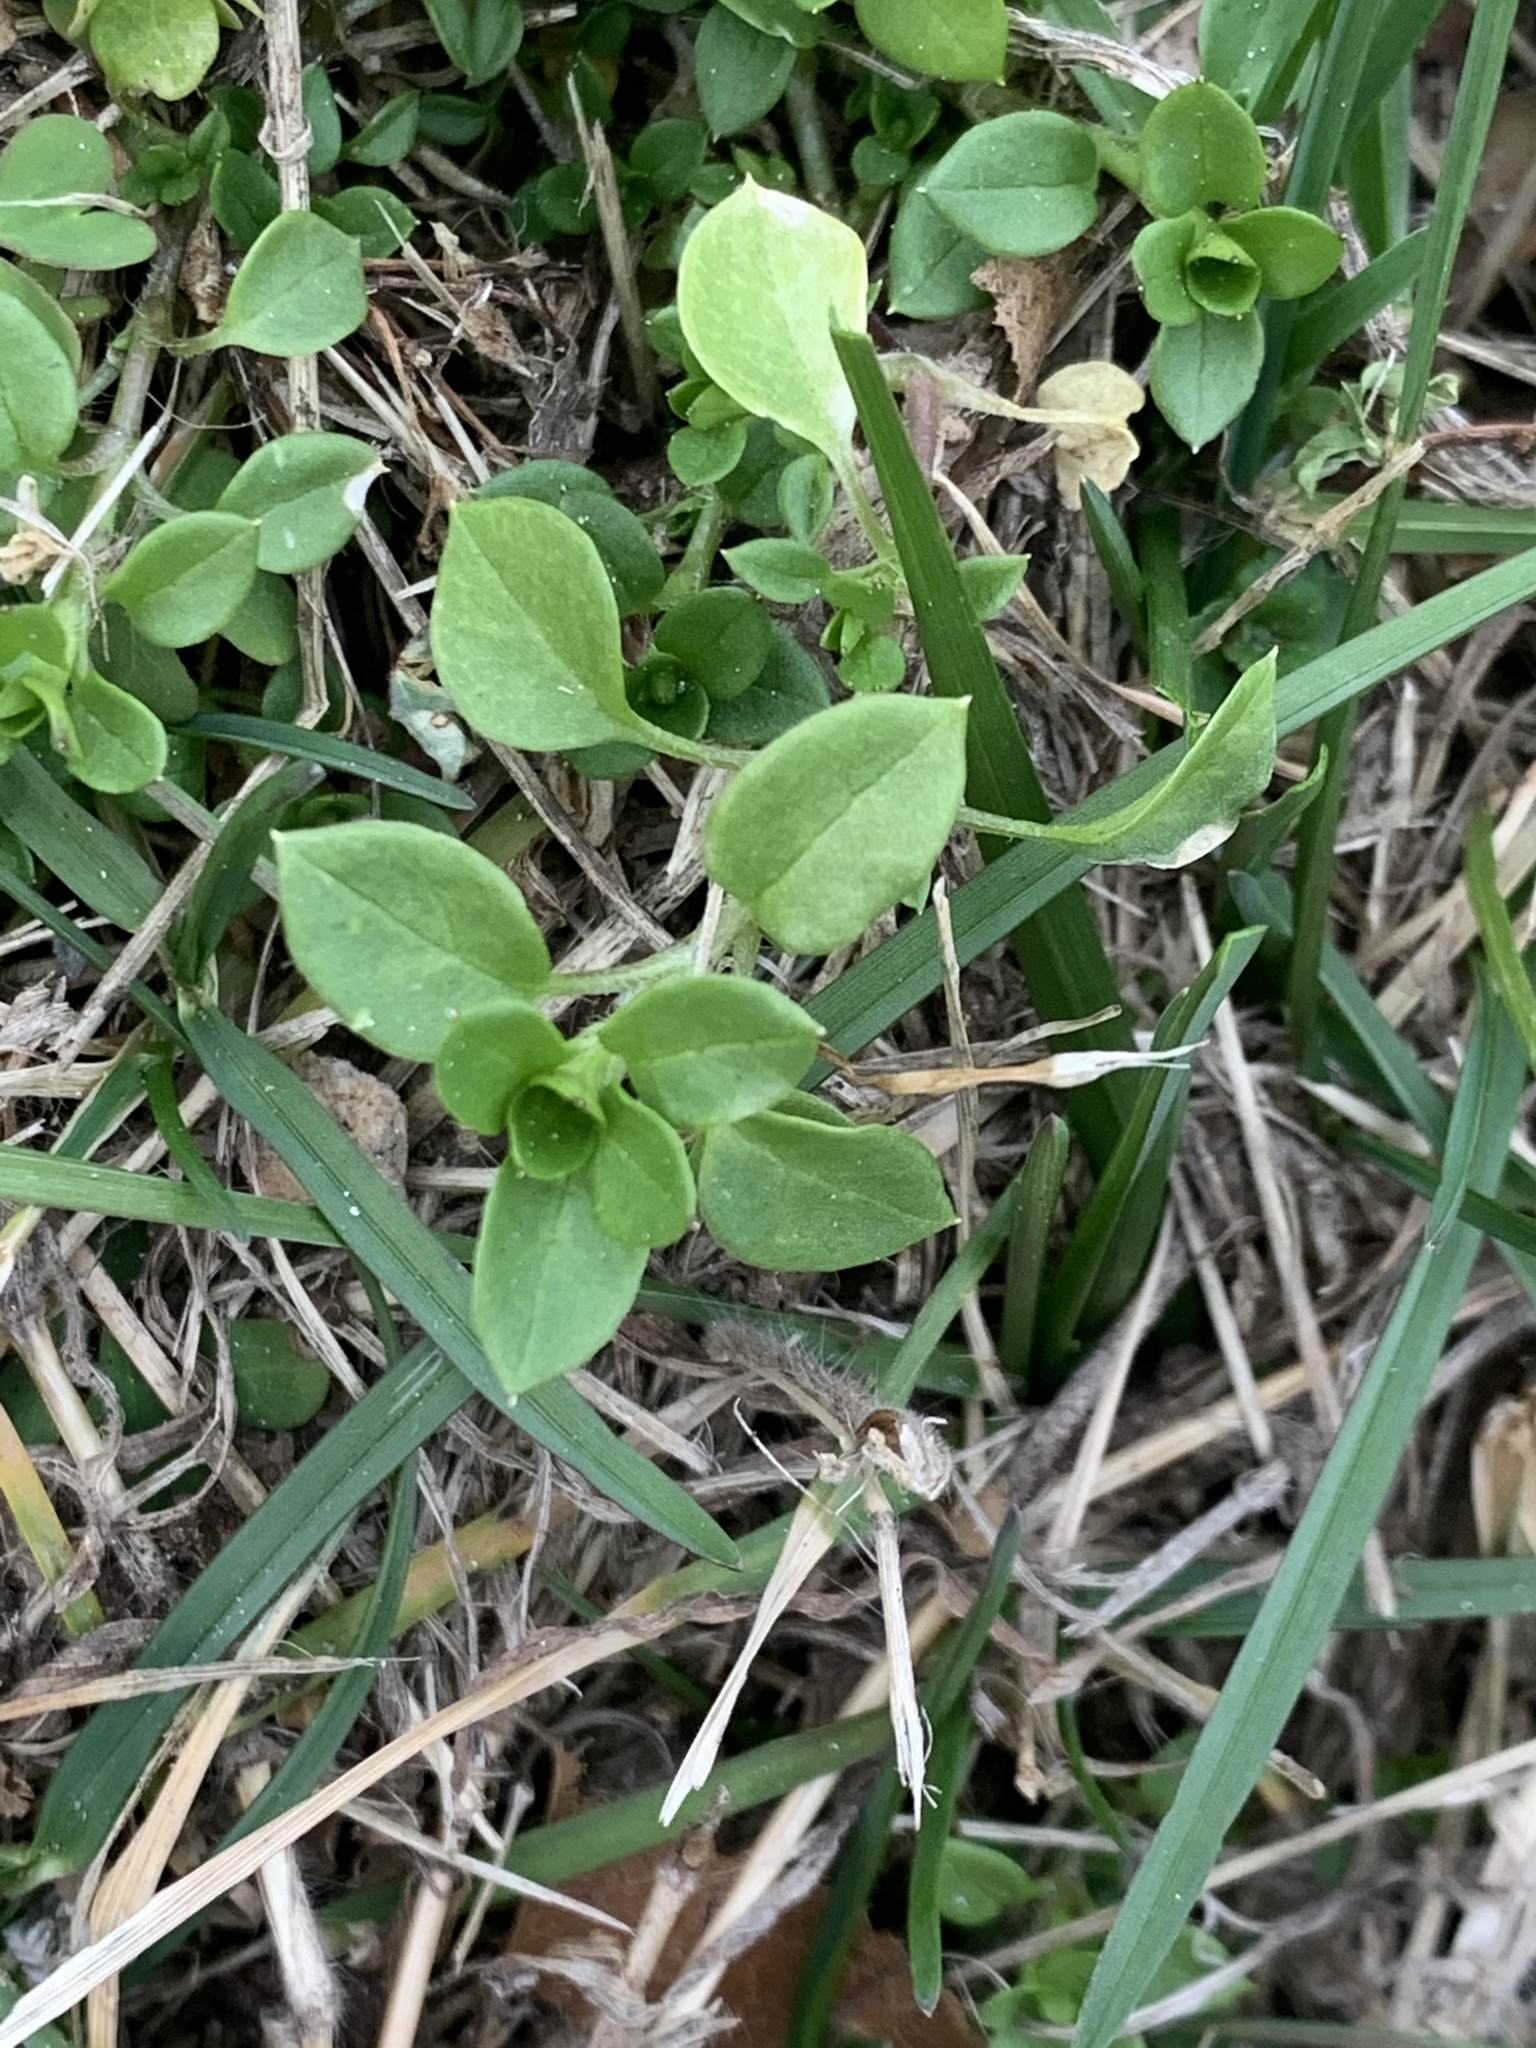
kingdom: Plantae
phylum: Tracheophyta
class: Magnoliopsida
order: Caryophyllales
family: Caryophyllaceae
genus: Stellaria
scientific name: Stellaria media
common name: Common chickweed
